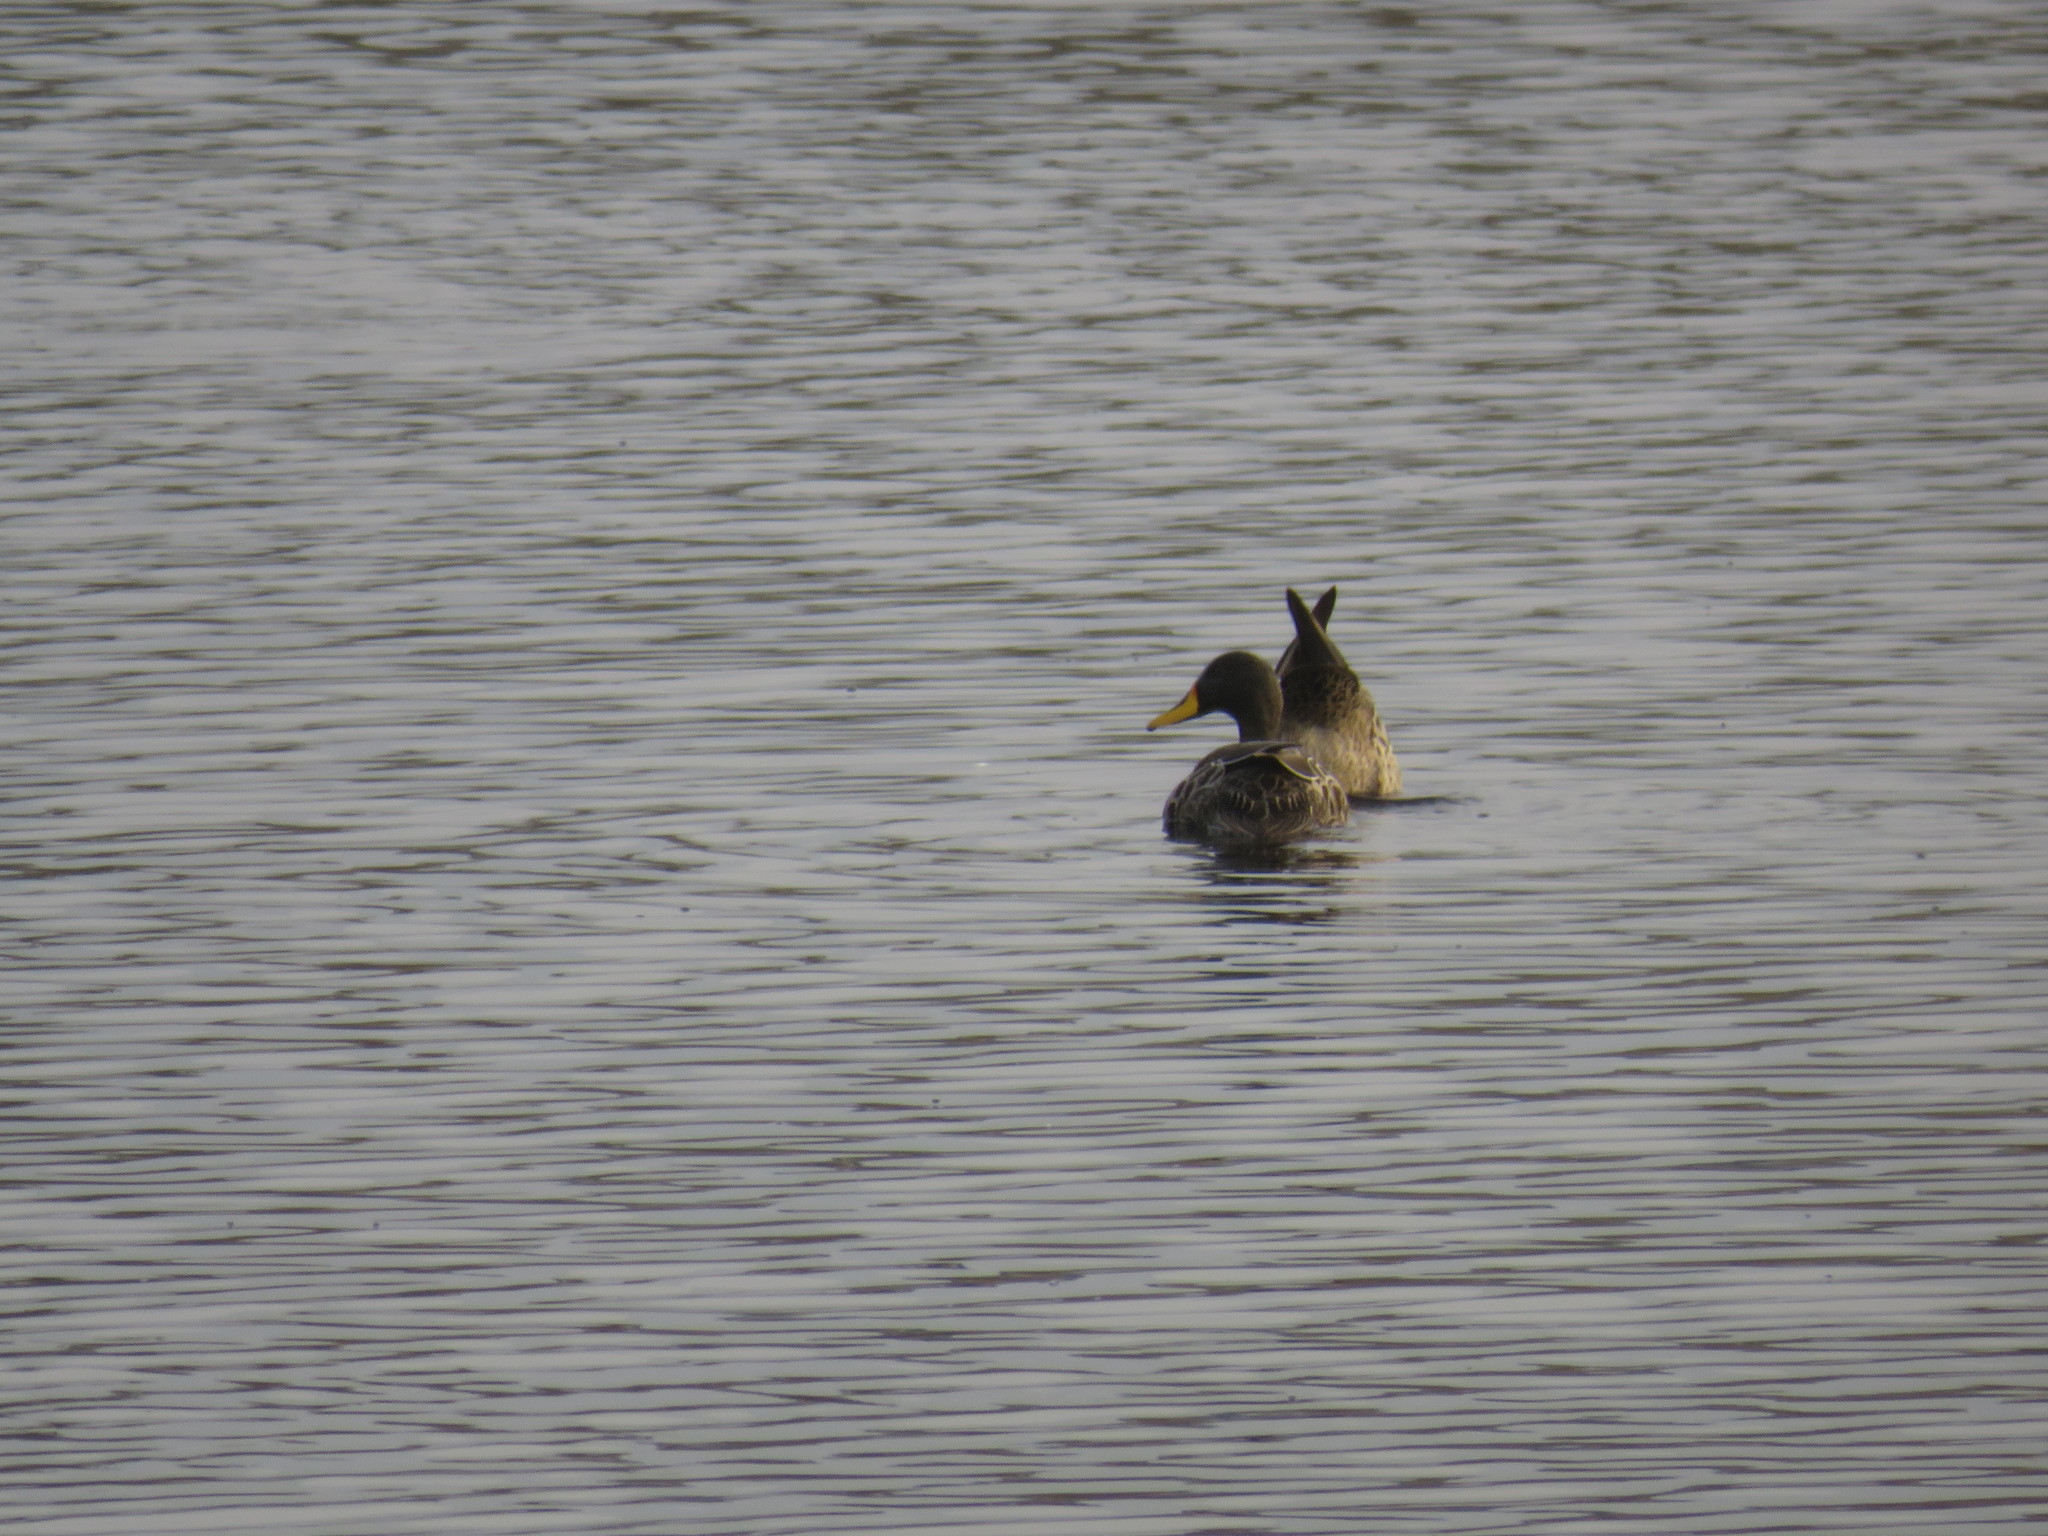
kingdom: Animalia
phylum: Chordata
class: Aves
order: Anseriformes
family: Anatidae
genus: Anas
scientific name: Anas undulata
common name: Yellow-billed duck
